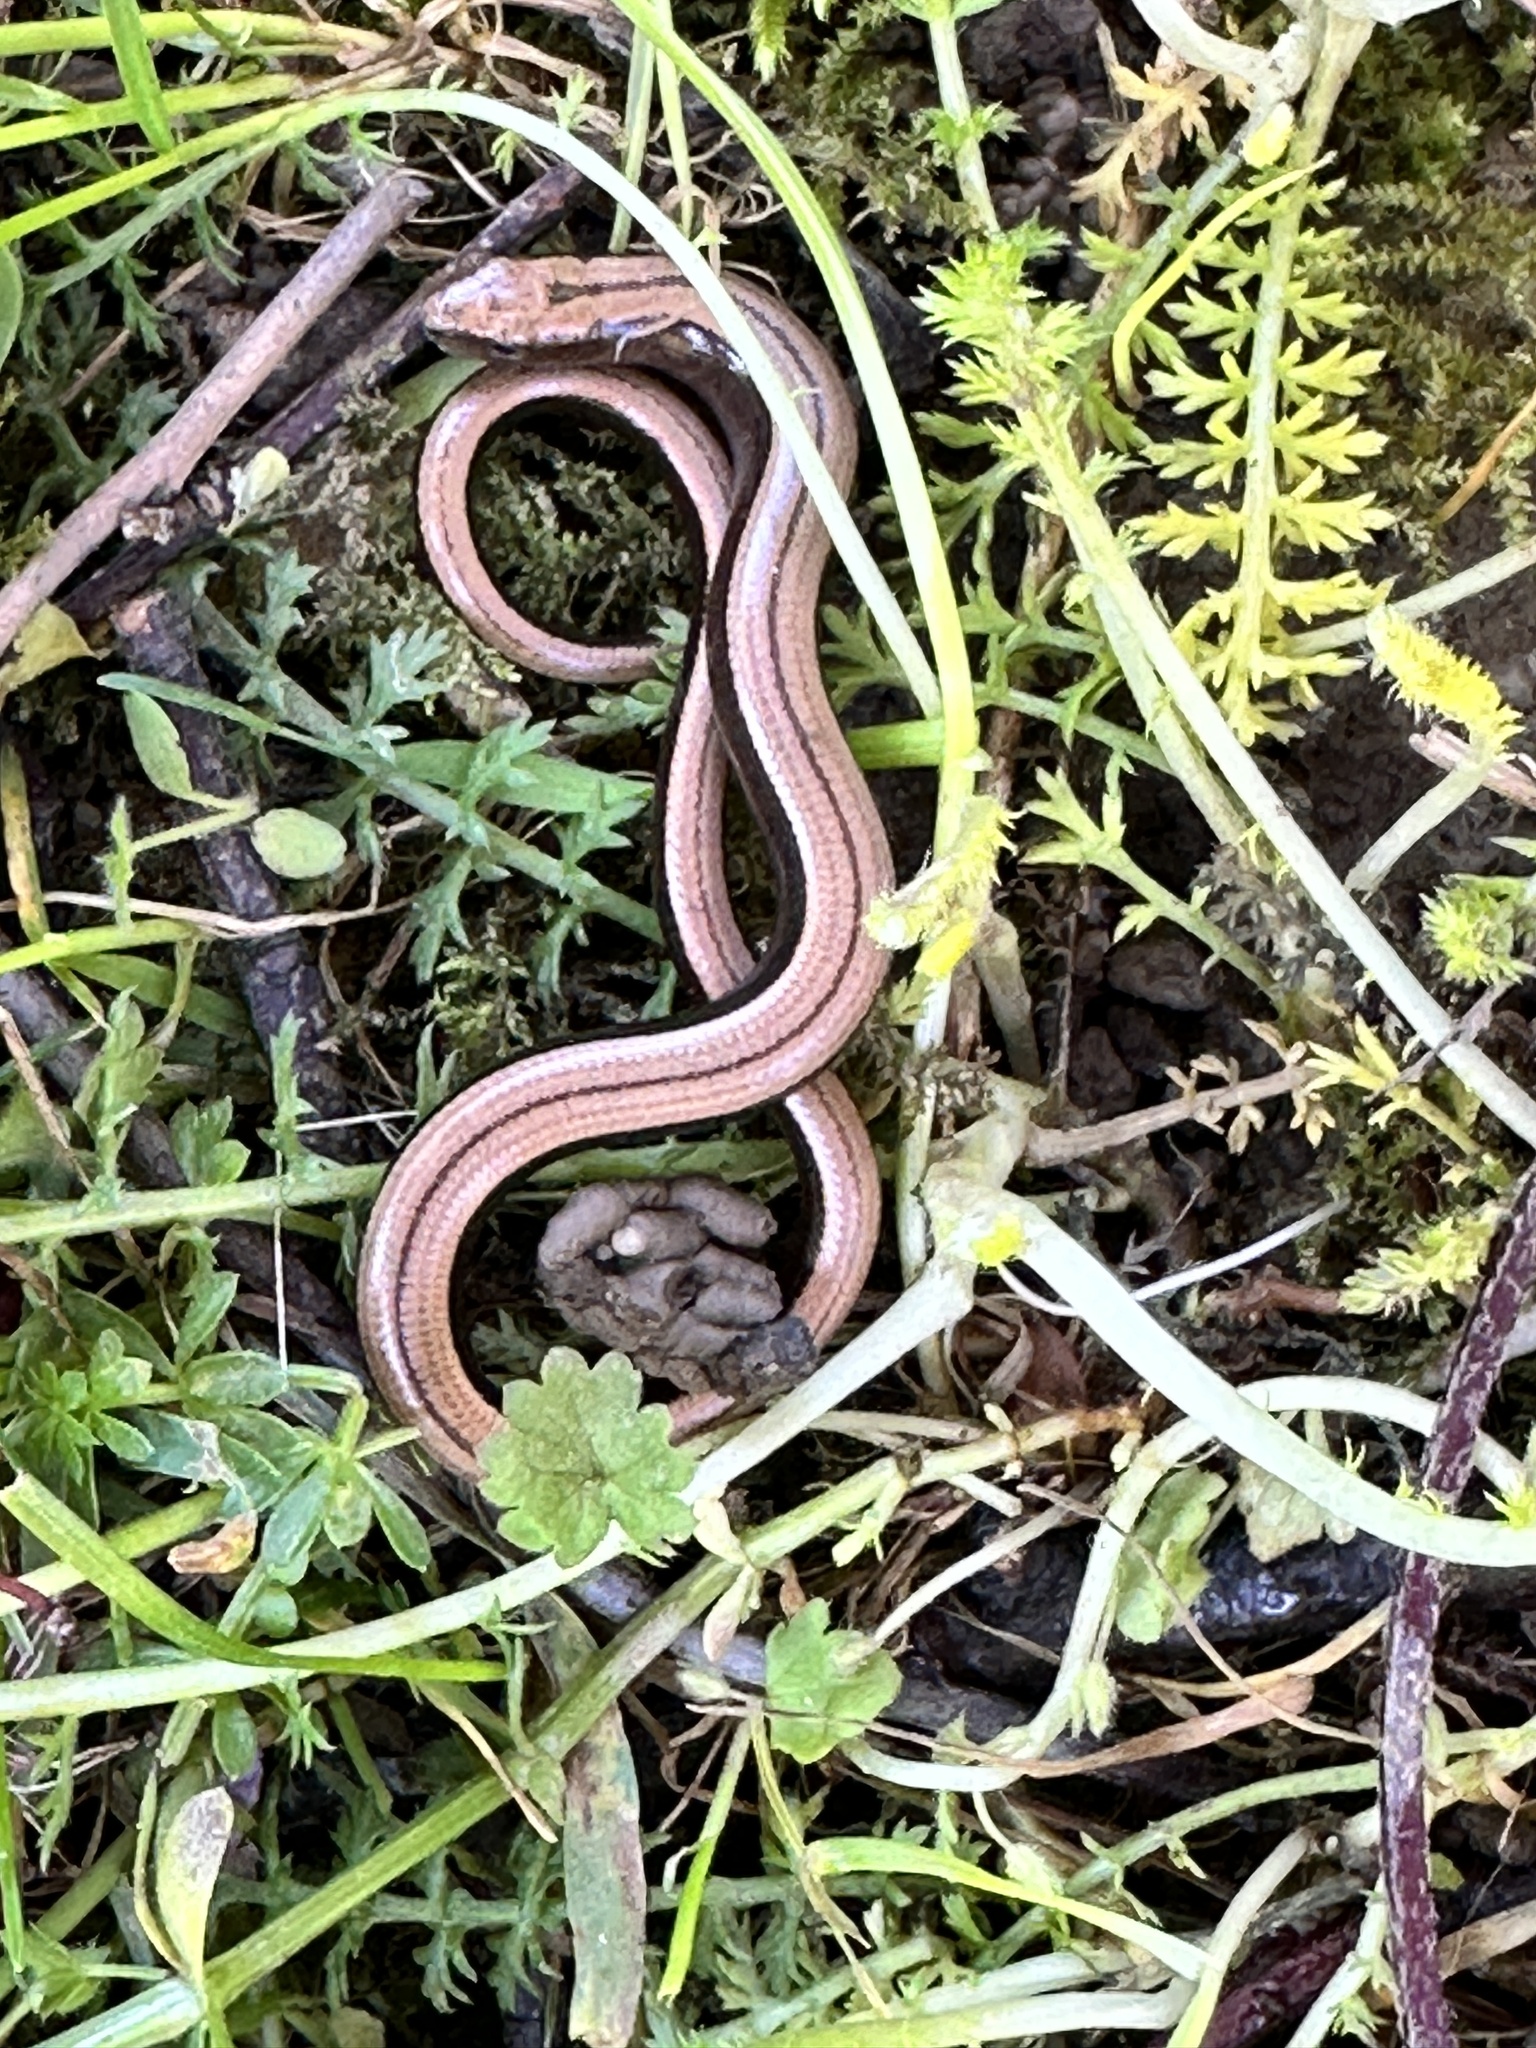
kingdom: Animalia
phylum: Chordata
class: Squamata
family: Anguidae
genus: Anguis
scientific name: Anguis fragilis
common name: Slow worm
